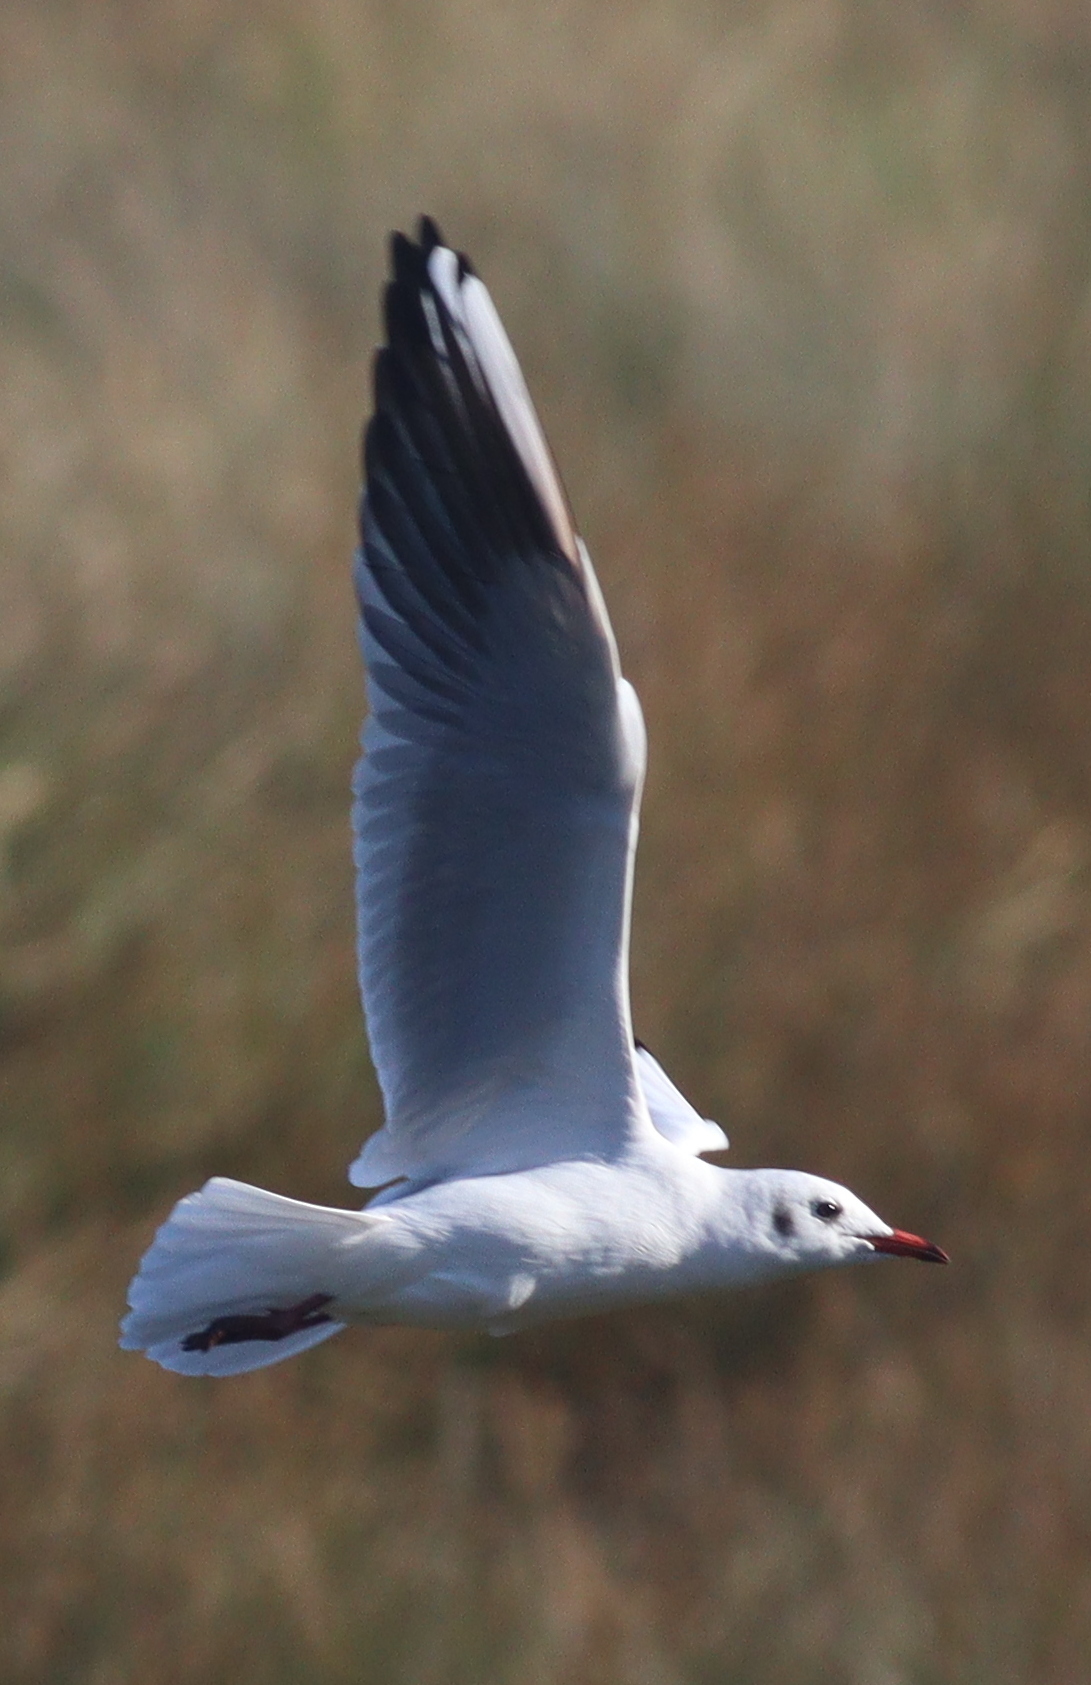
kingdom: Animalia
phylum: Chordata
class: Aves
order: Charadriiformes
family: Laridae
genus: Chroicocephalus
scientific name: Chroicocephalus ridibundus
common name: Black-headed gull
